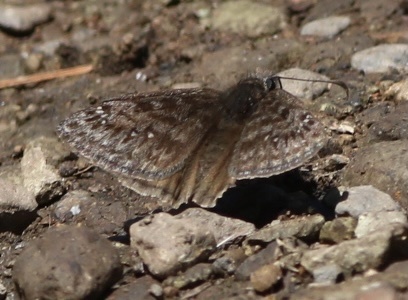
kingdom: Animalia
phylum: Arthropoda
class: Insecta
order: Lepidoptera
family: Hesperiidae
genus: Erynnis
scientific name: Erynnis propertius
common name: Propertius duskywing
